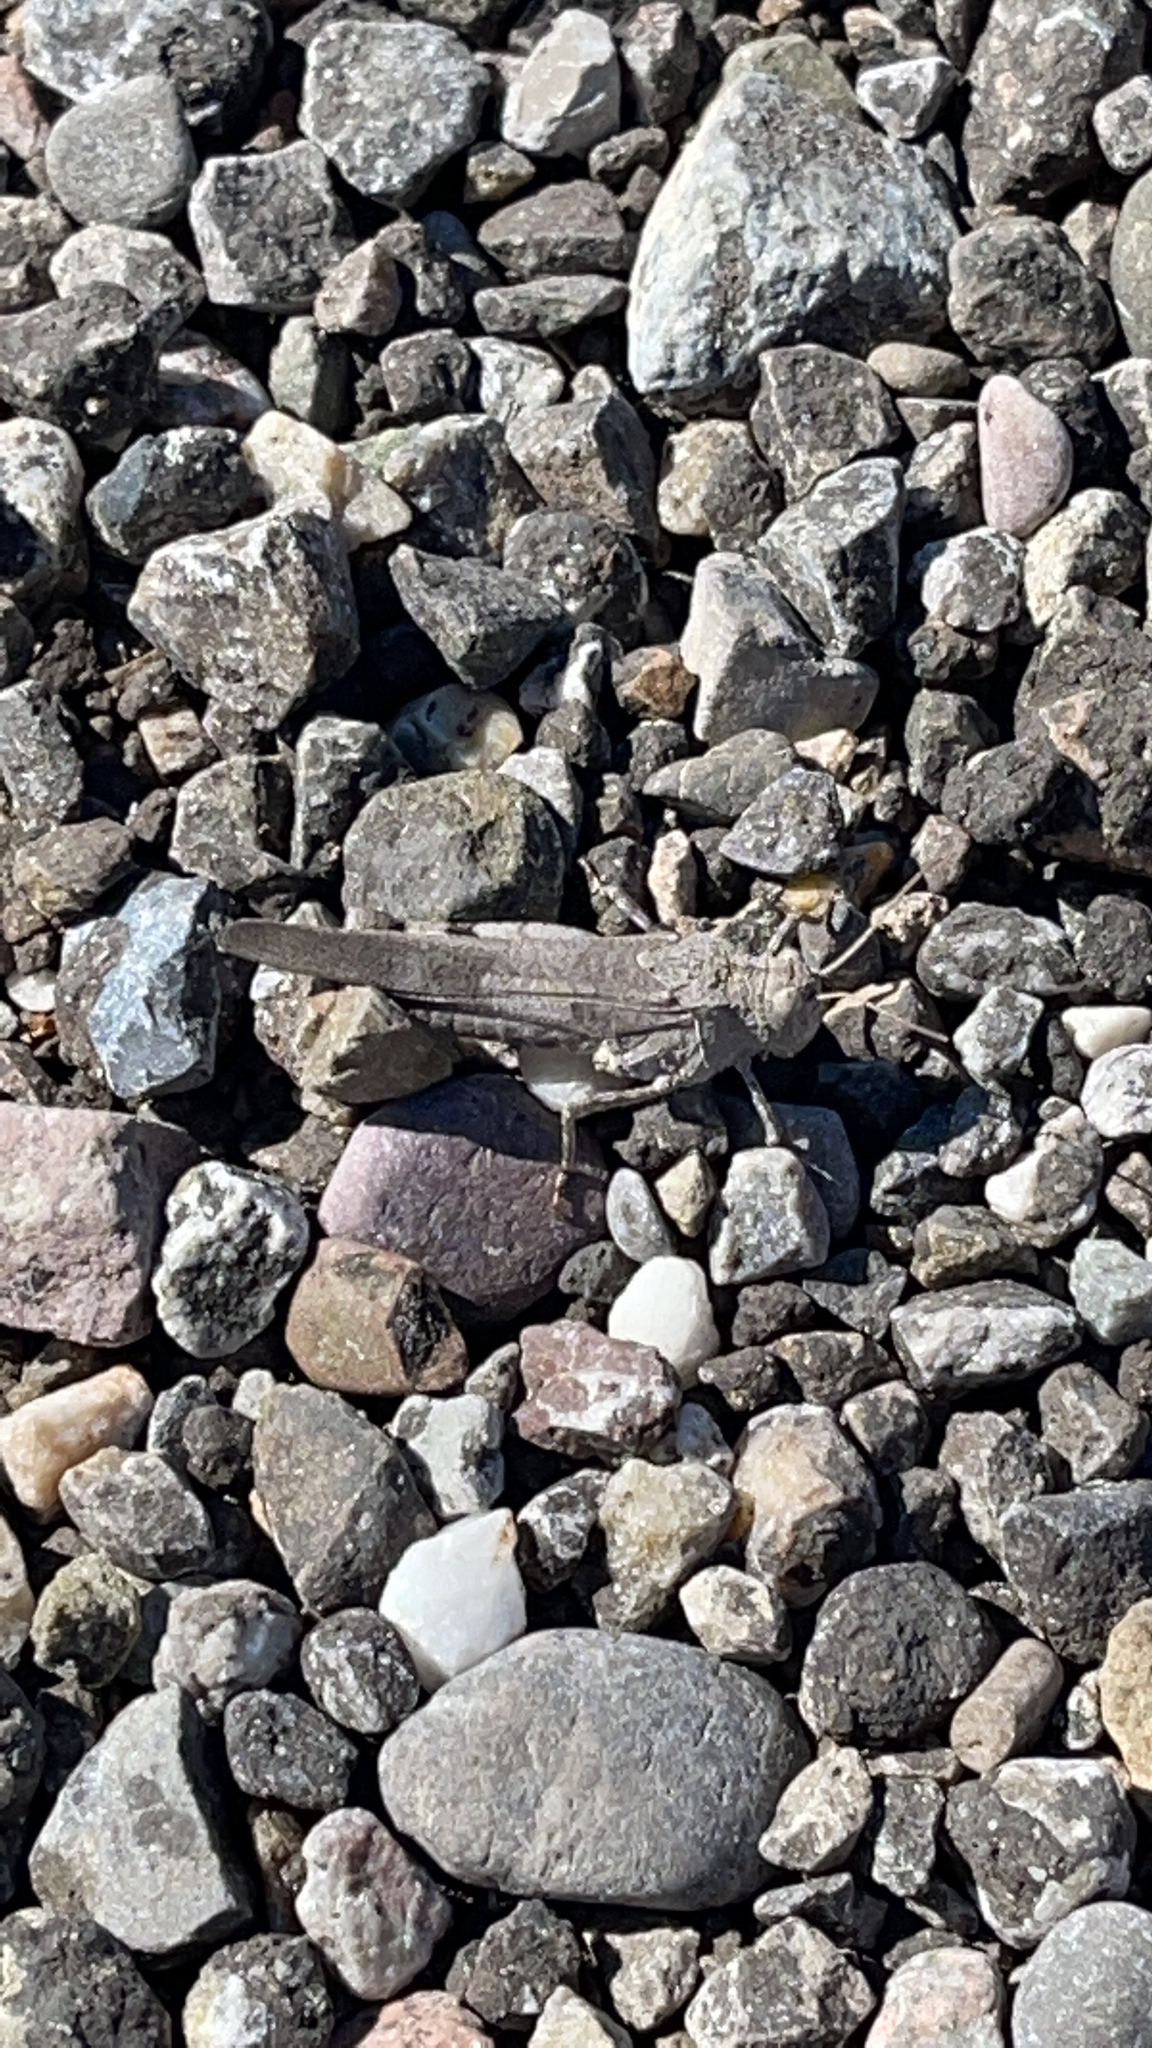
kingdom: Animalia
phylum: Arthropoda
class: Insecta
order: Orthoptera
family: Acrididae
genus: Oedipoda
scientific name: Oedipoda caerulescens
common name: Blue-winged grasshopper
